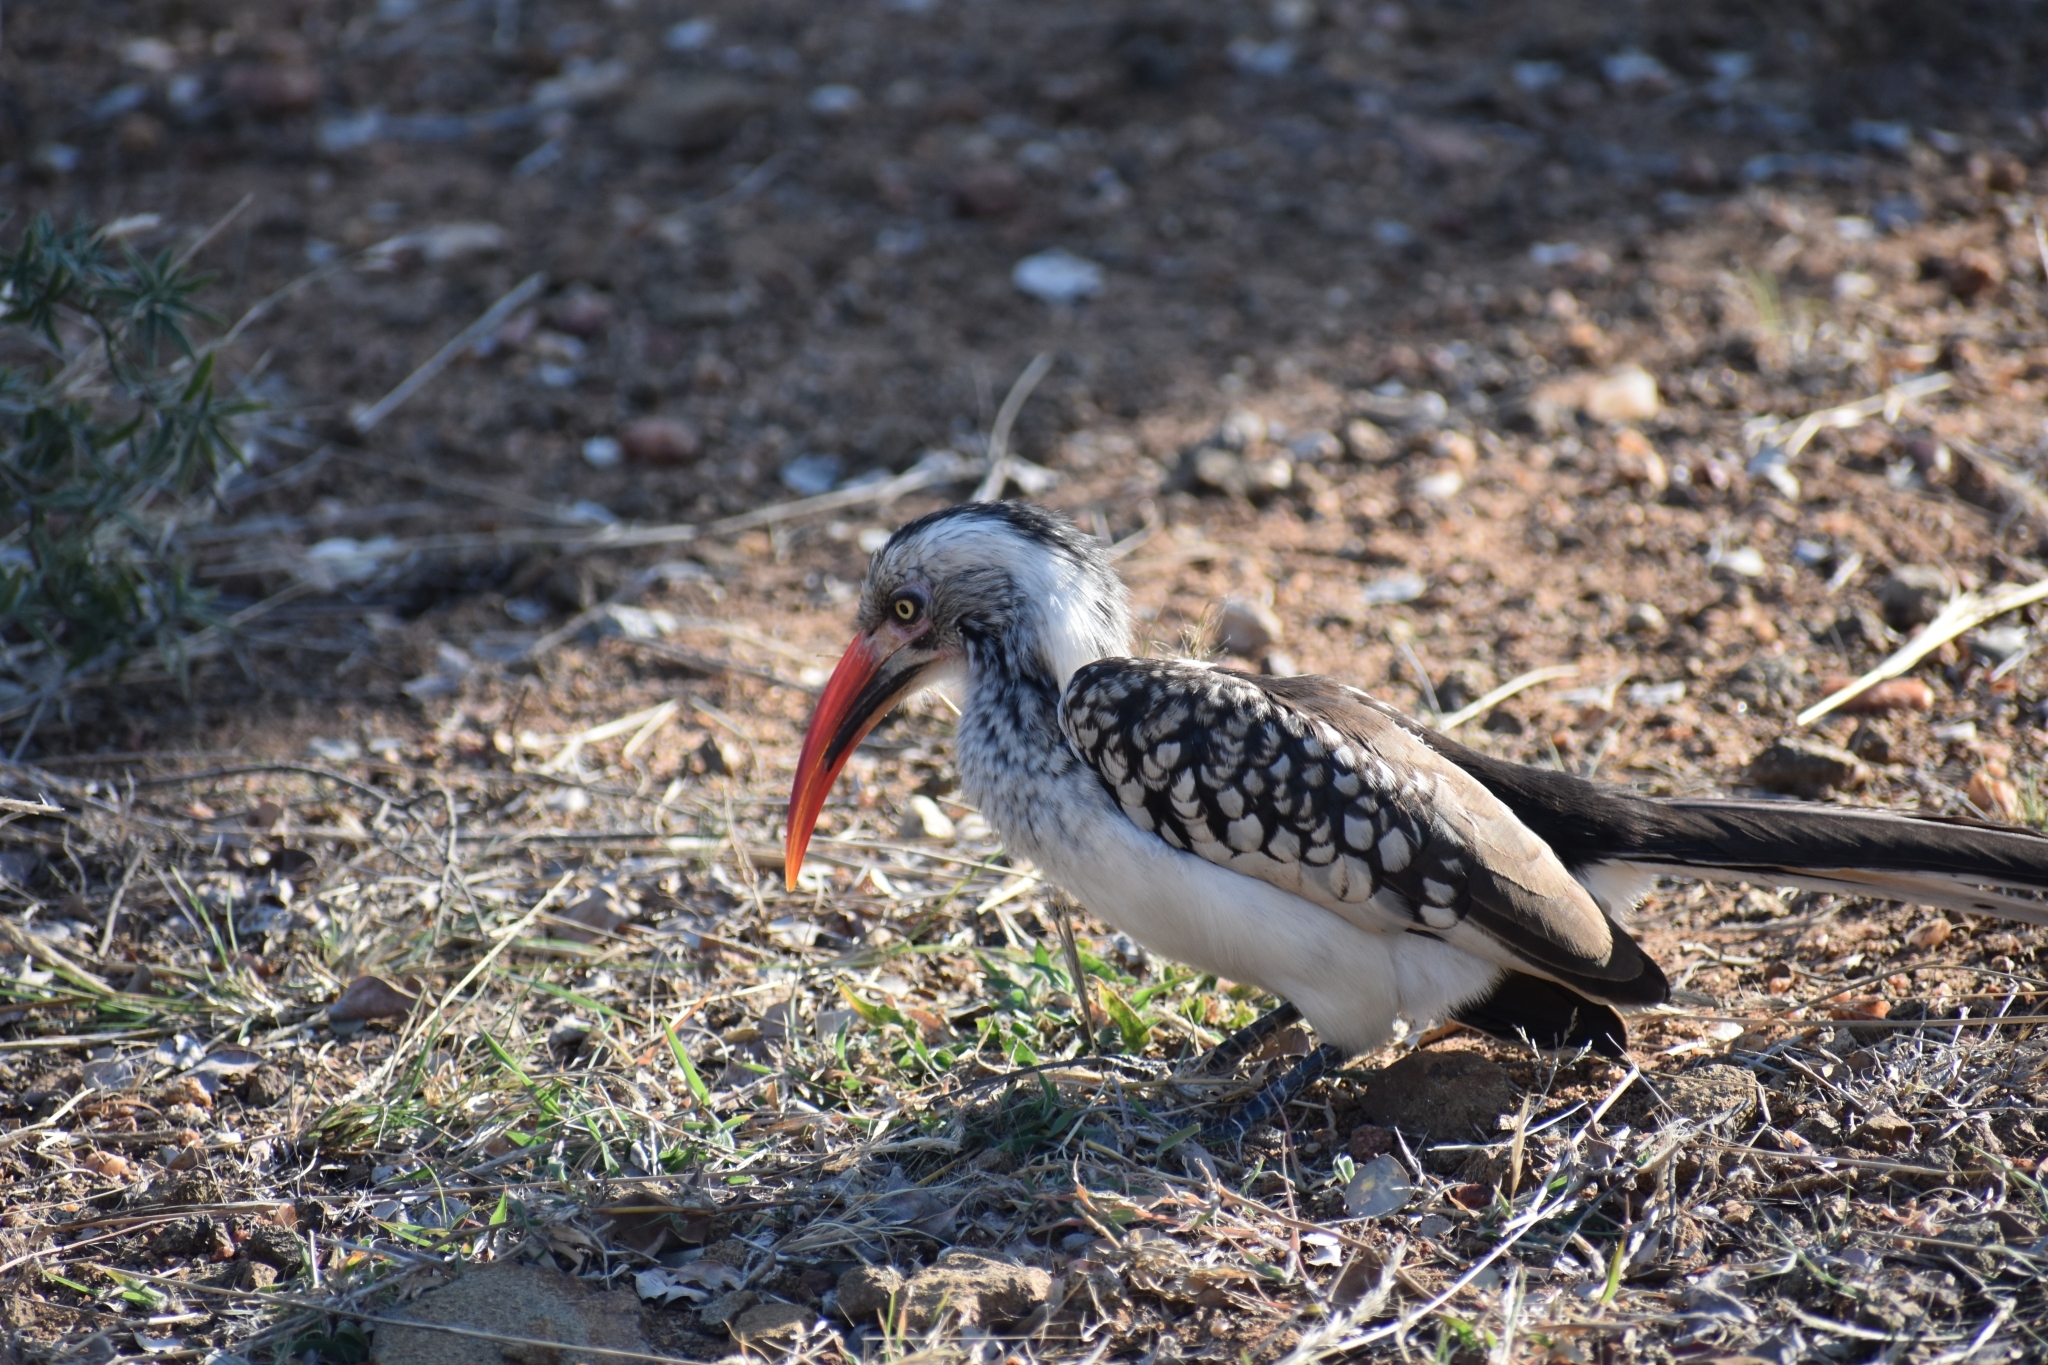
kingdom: Animalia
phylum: Chordata
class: Aves
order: Bucerotiformes
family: Bucerotidae
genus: Tockus
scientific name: Tockus rufirostris
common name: Southern red-billed hornbill
